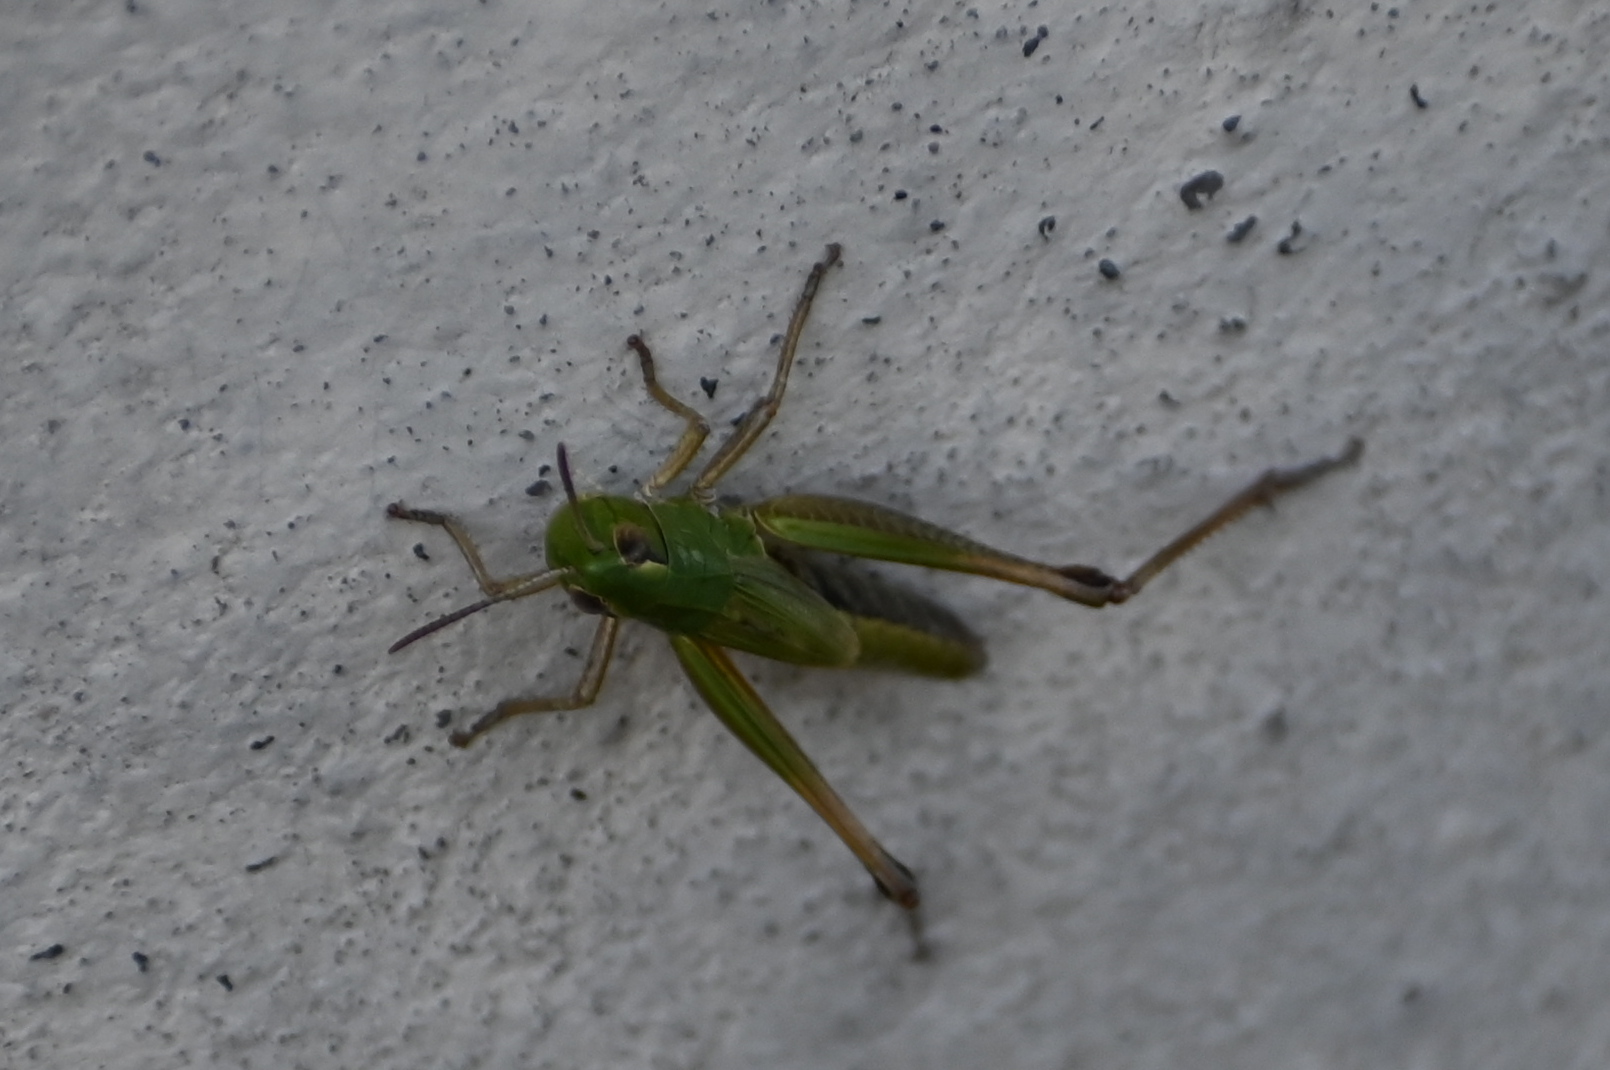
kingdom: Animalia
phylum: Arthropoda
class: Insecta
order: Orthoptera
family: Acrididae
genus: Pseudochorthippus
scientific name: Pseudochorthippus parallelus
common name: Meadow grasshopper
